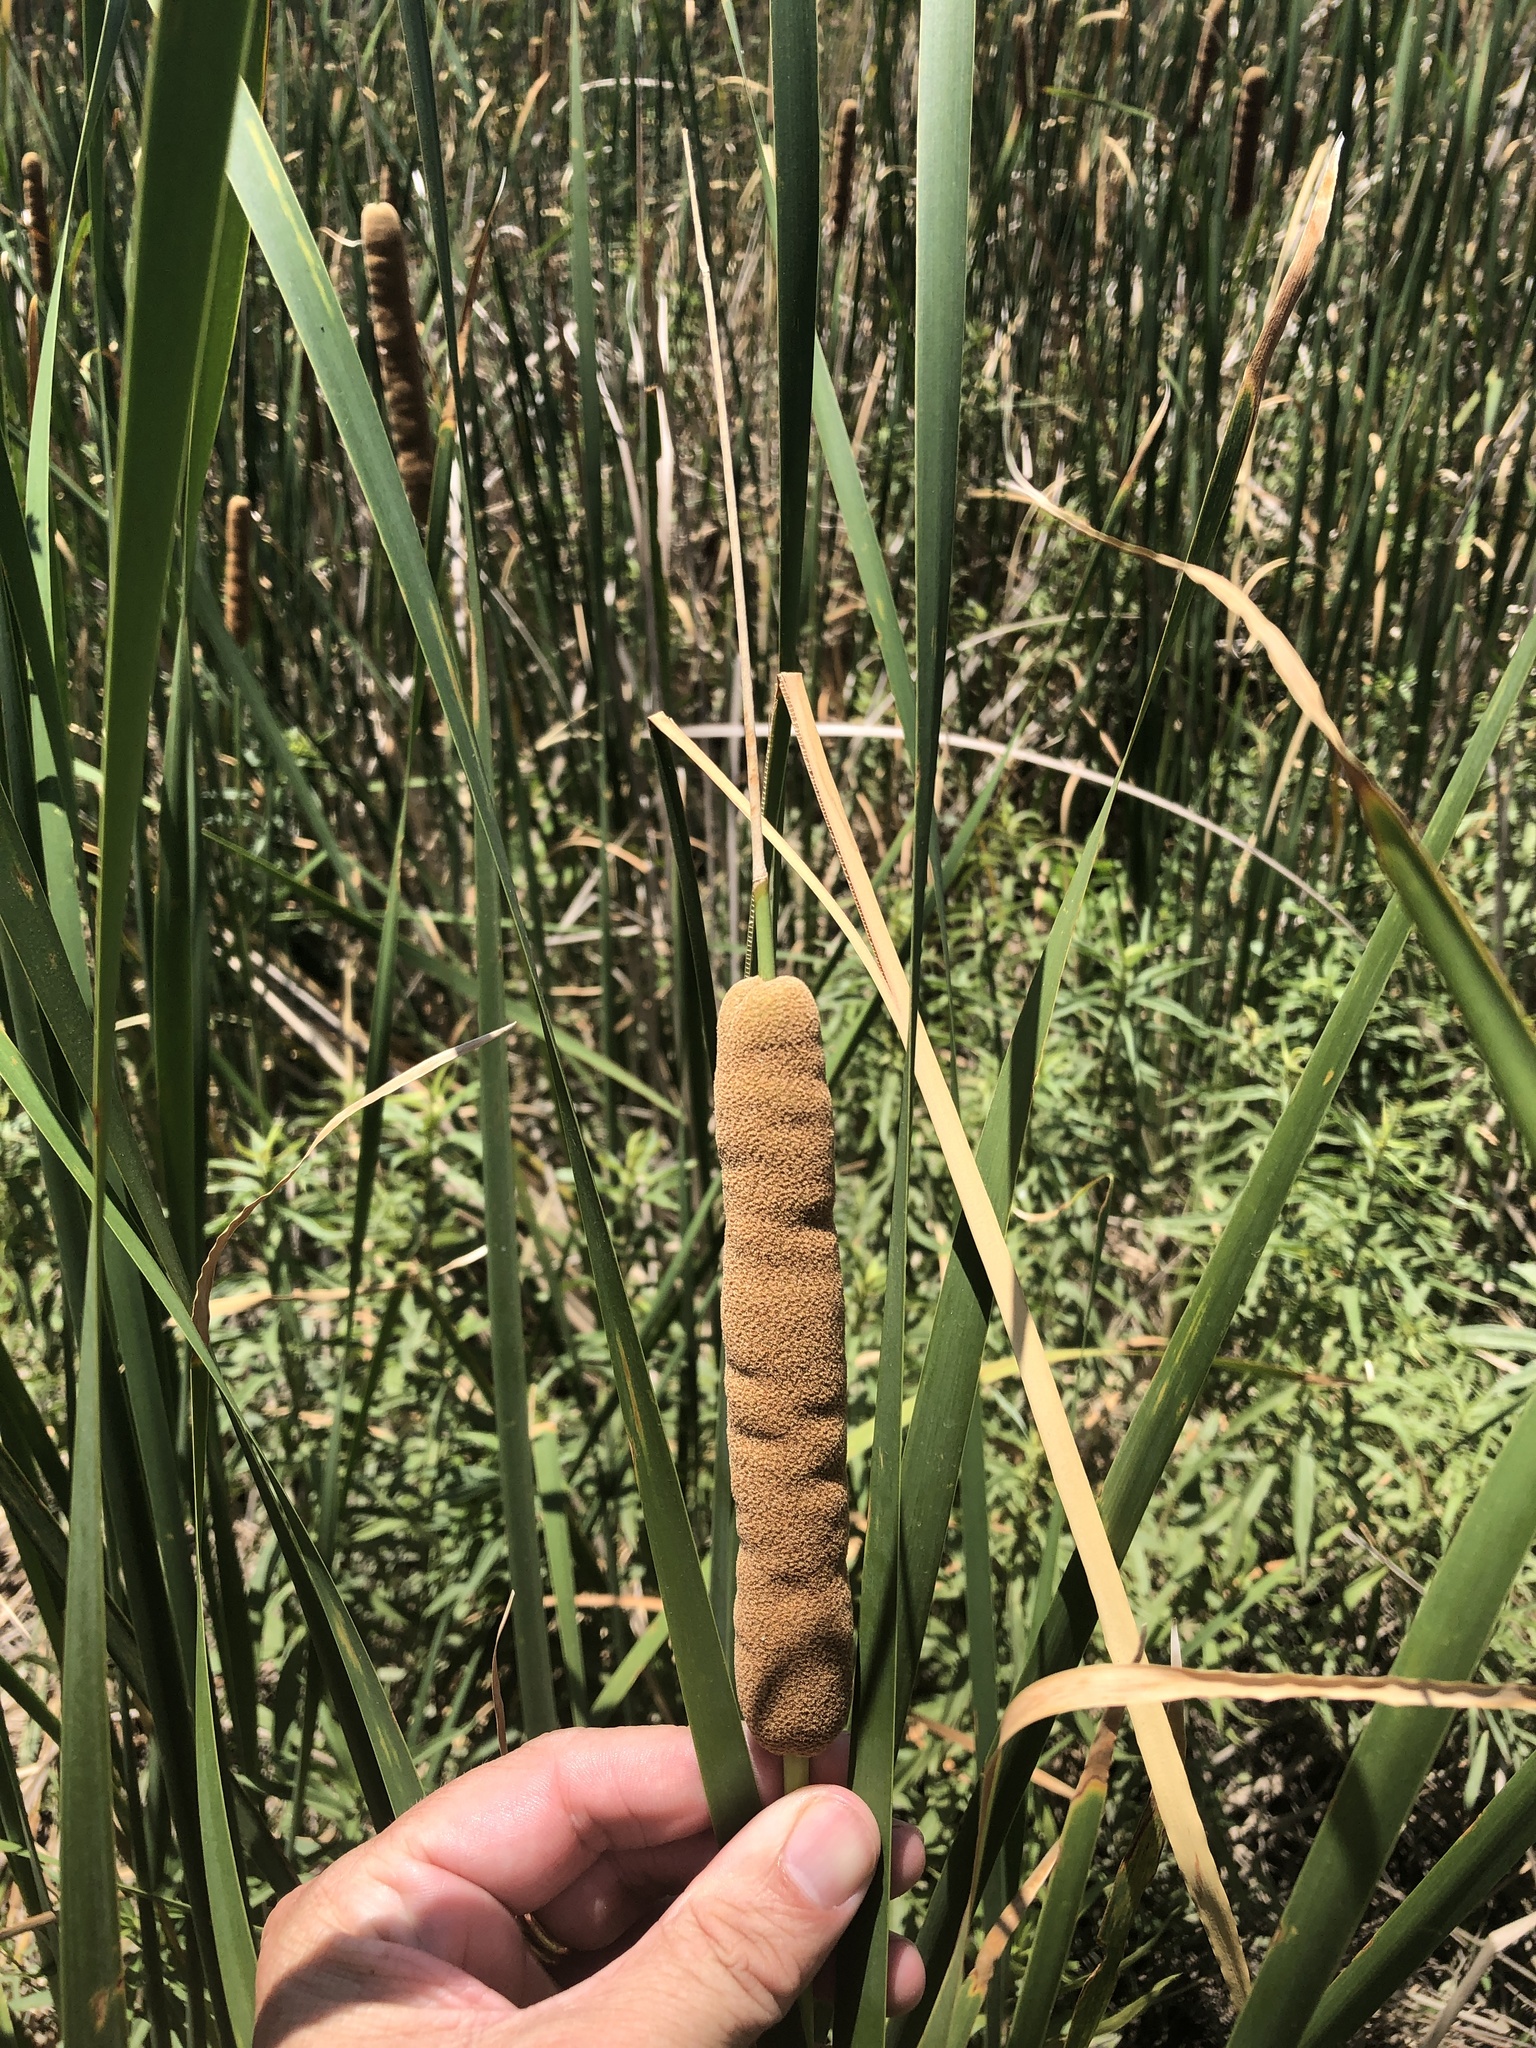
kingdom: Plantae
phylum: Tracheophyta
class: Liliopsida
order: Poales
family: Typhaceae
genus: Typha
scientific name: Typha domingensis
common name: Southern cattail
